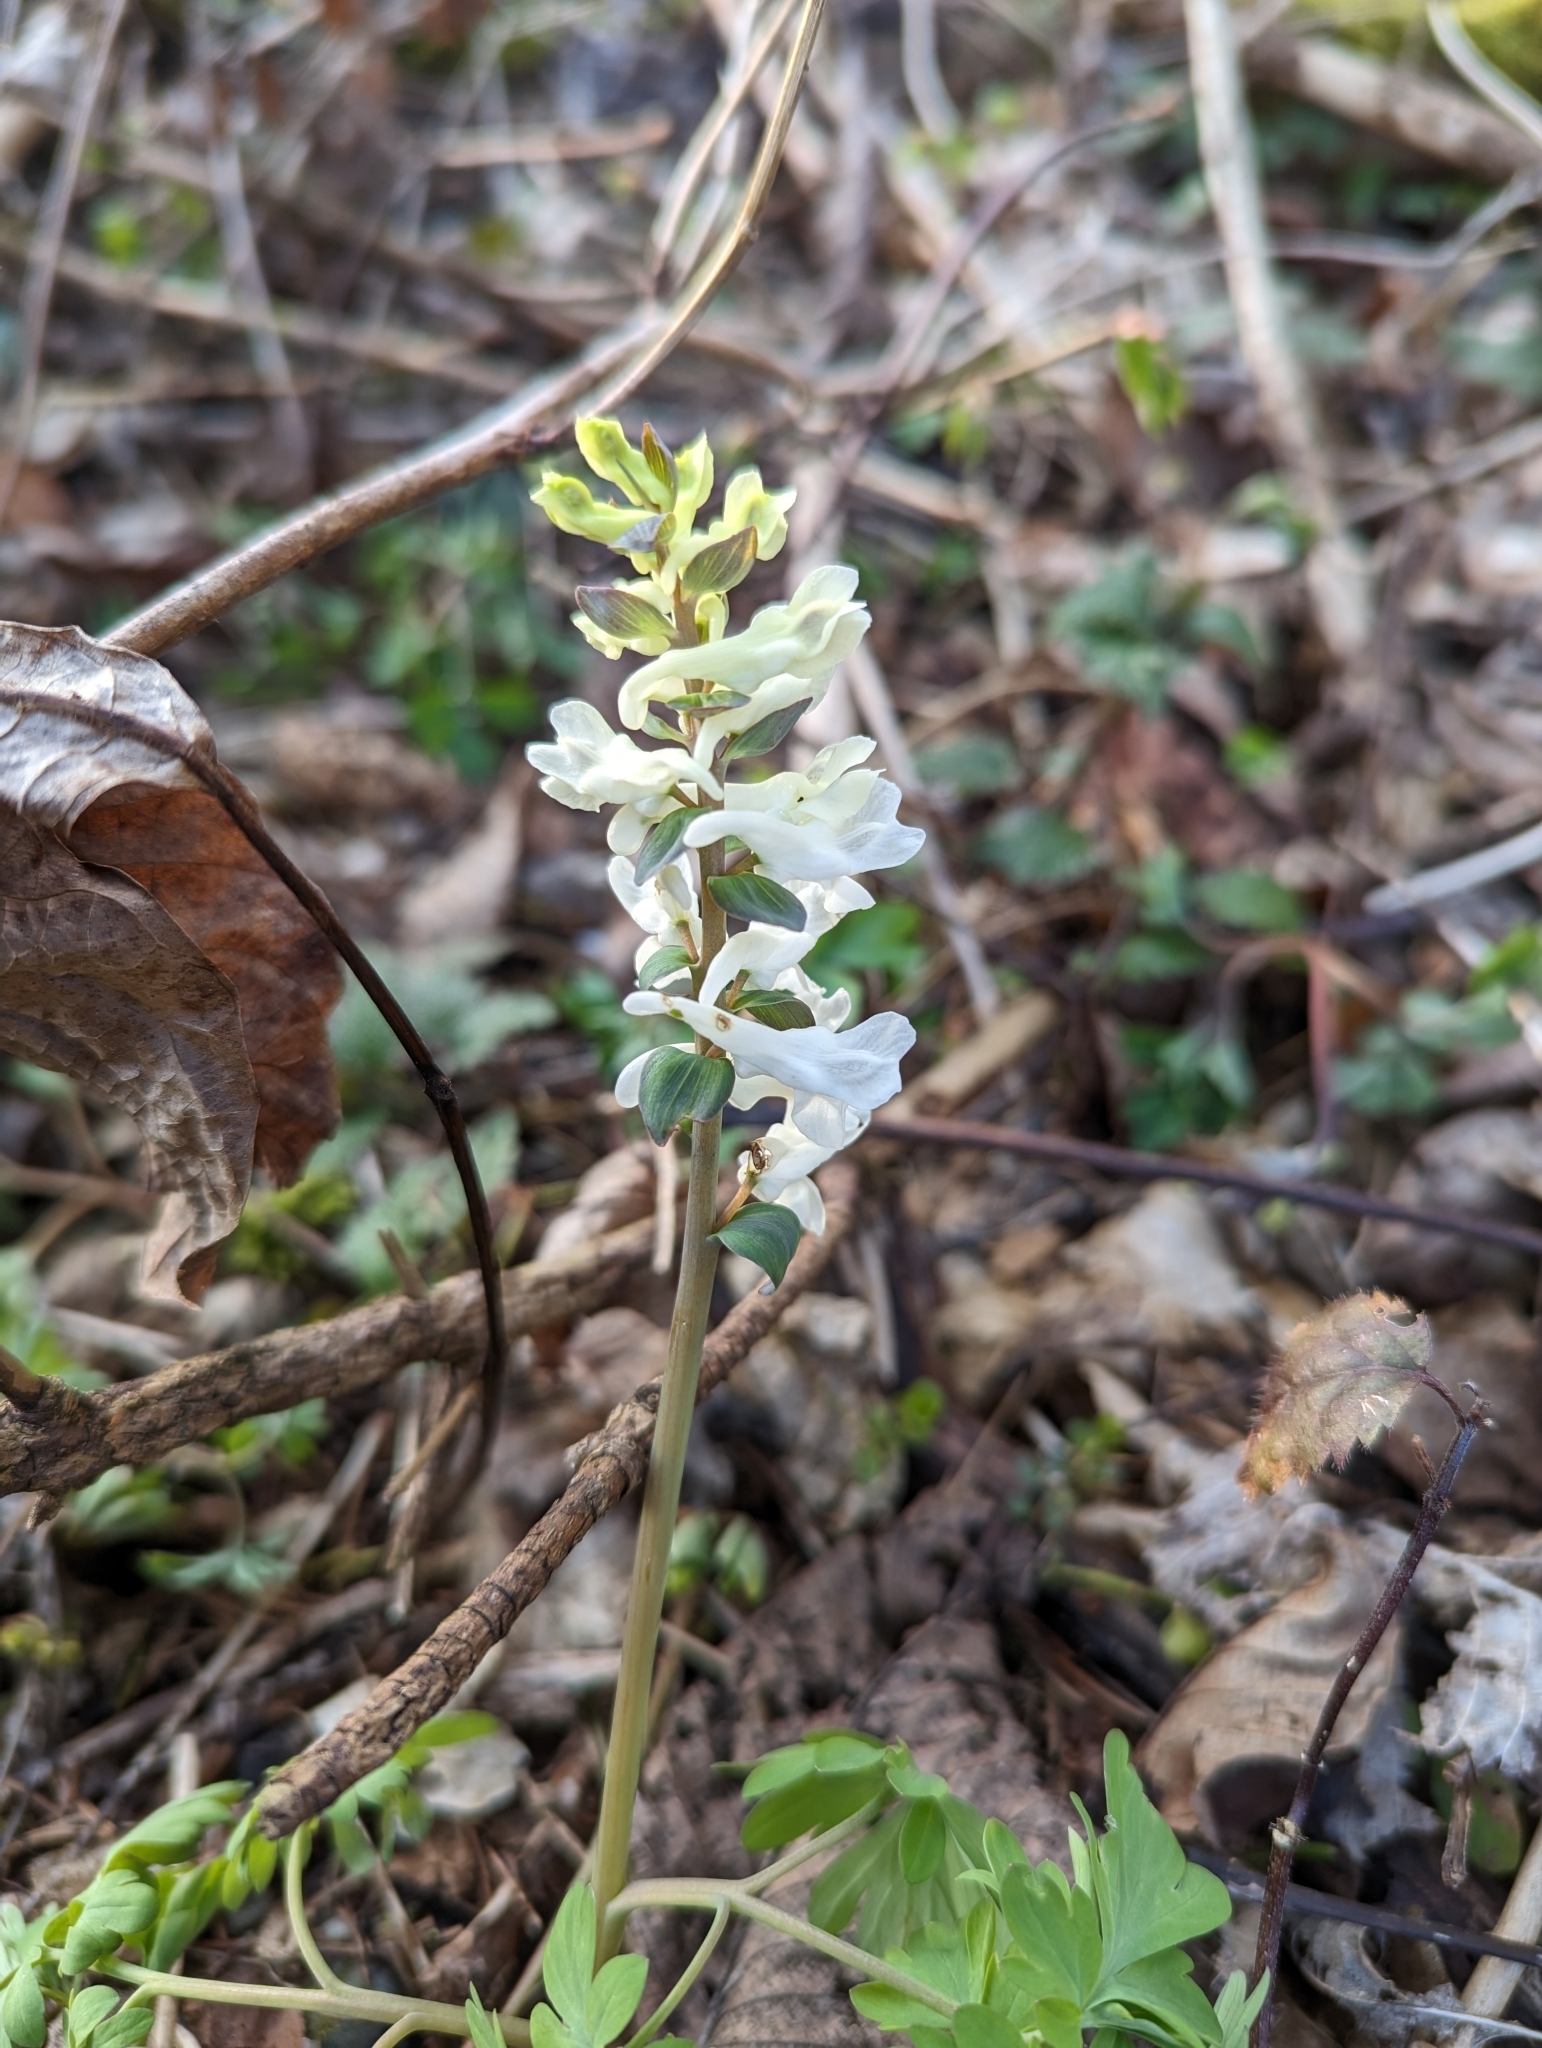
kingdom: Plantae
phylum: Tracheophyta
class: Magnoliopsida
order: Ranunculales
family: Papaveraceae
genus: Corydalis
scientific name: Corydalis cava
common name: Hollowroot
